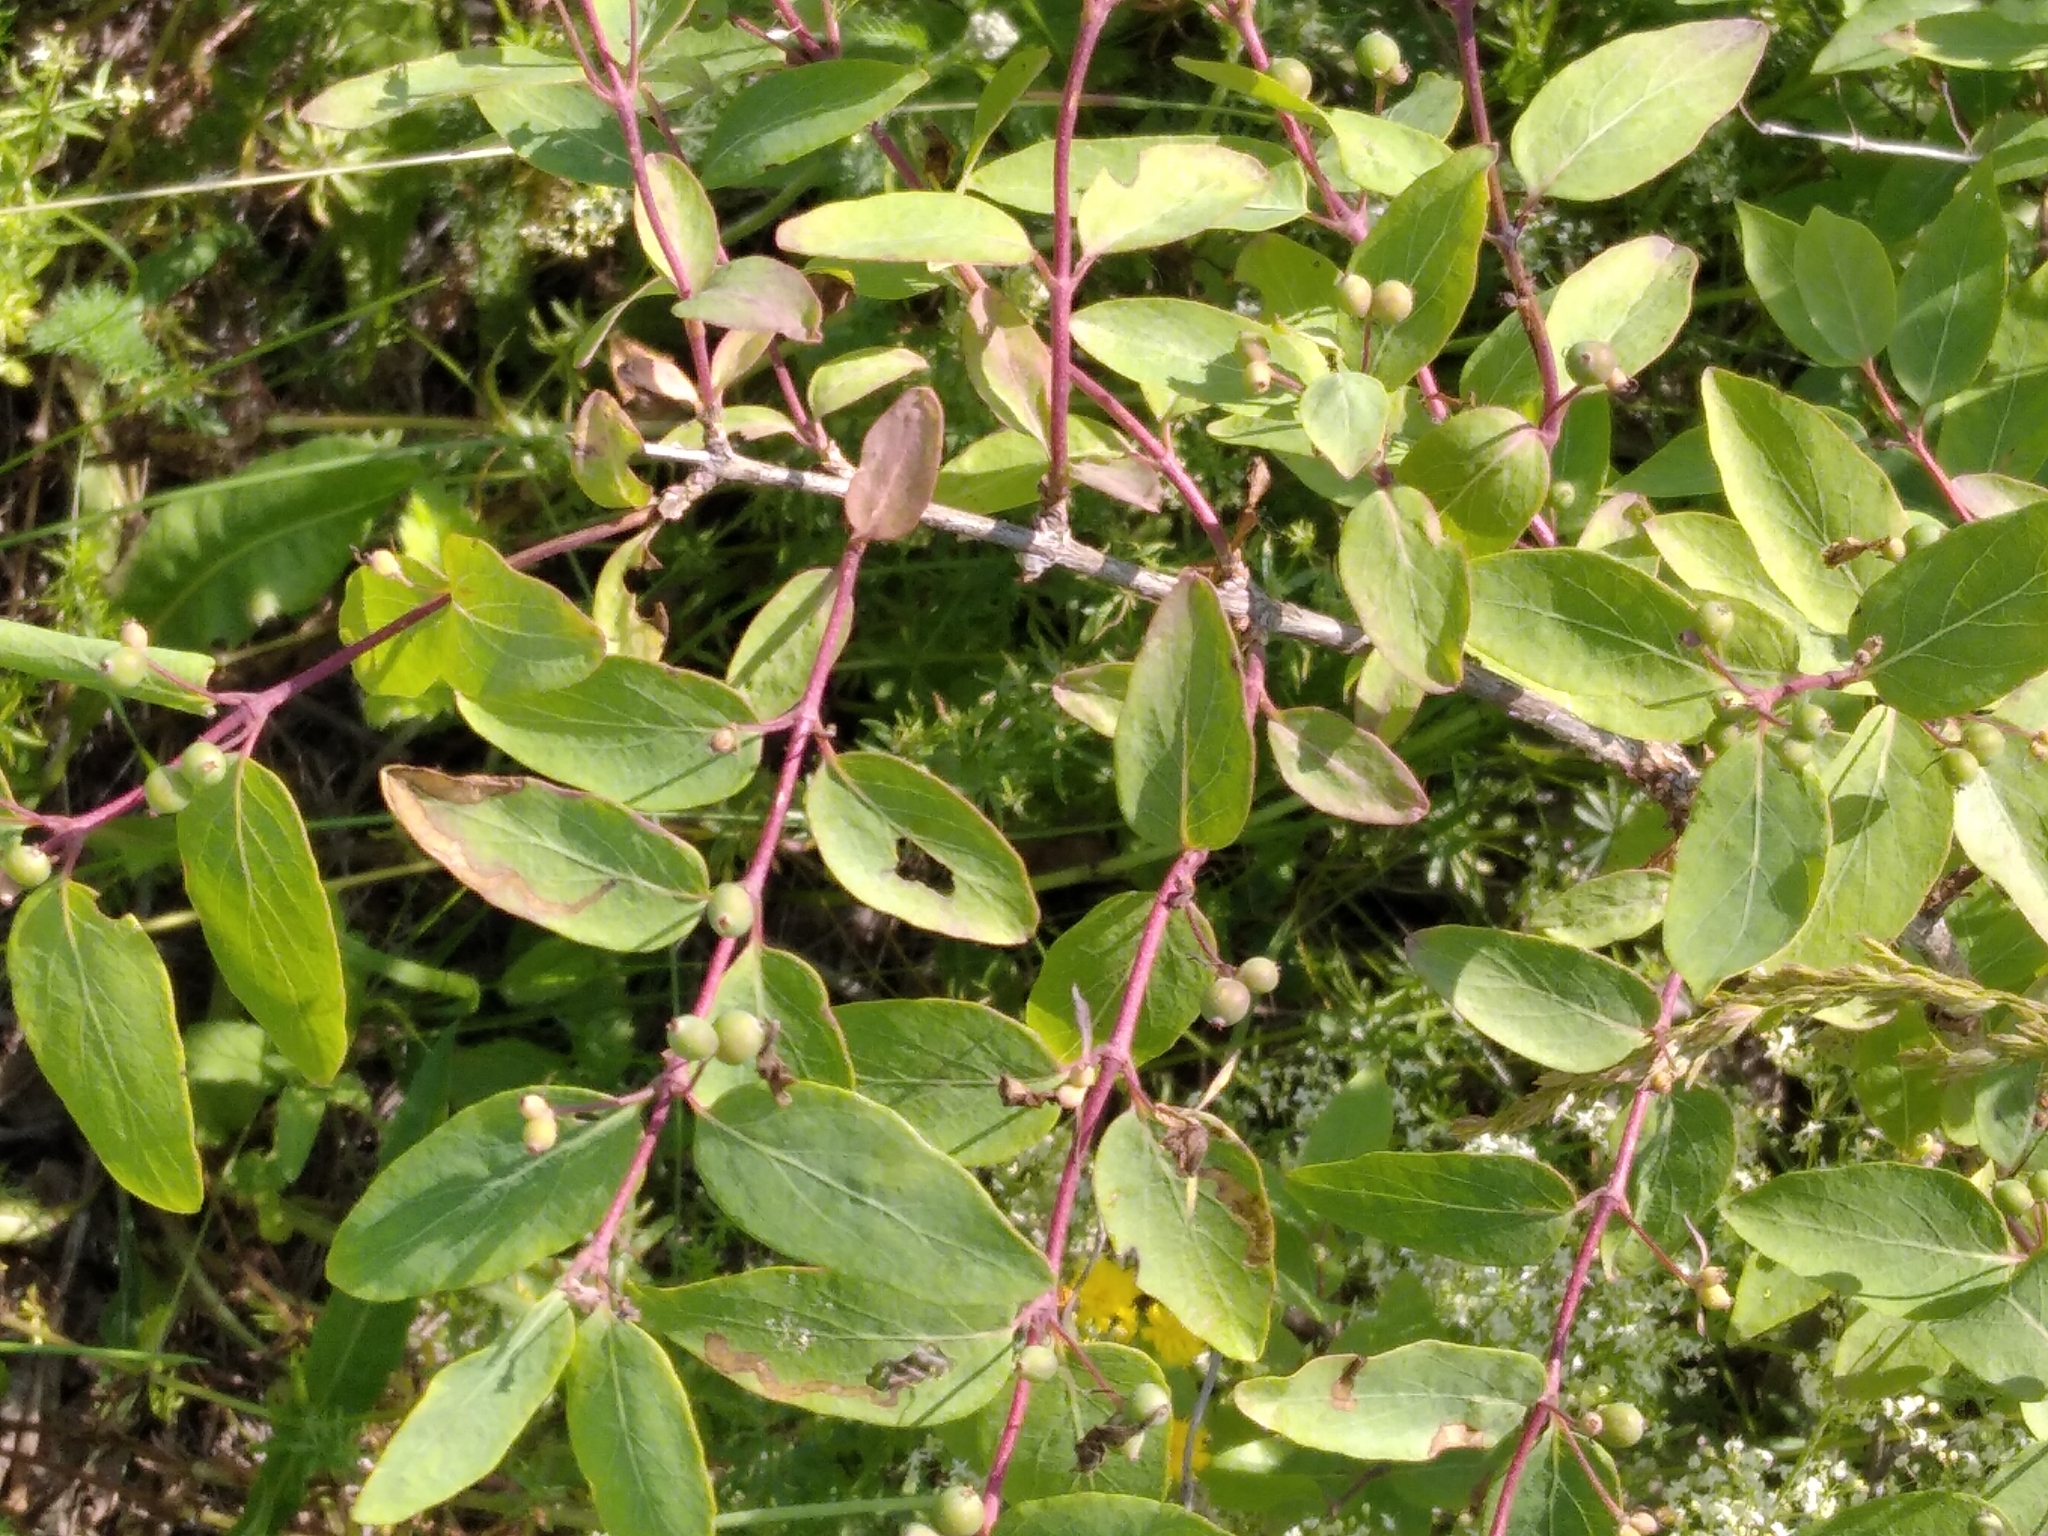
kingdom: Plantae
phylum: Tracheophyta
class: Magnoliopsida
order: Dipsacales
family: Caprifoliaceae
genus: Lonicera
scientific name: Lonicera tatarica
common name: Tatarian honeysuckle
